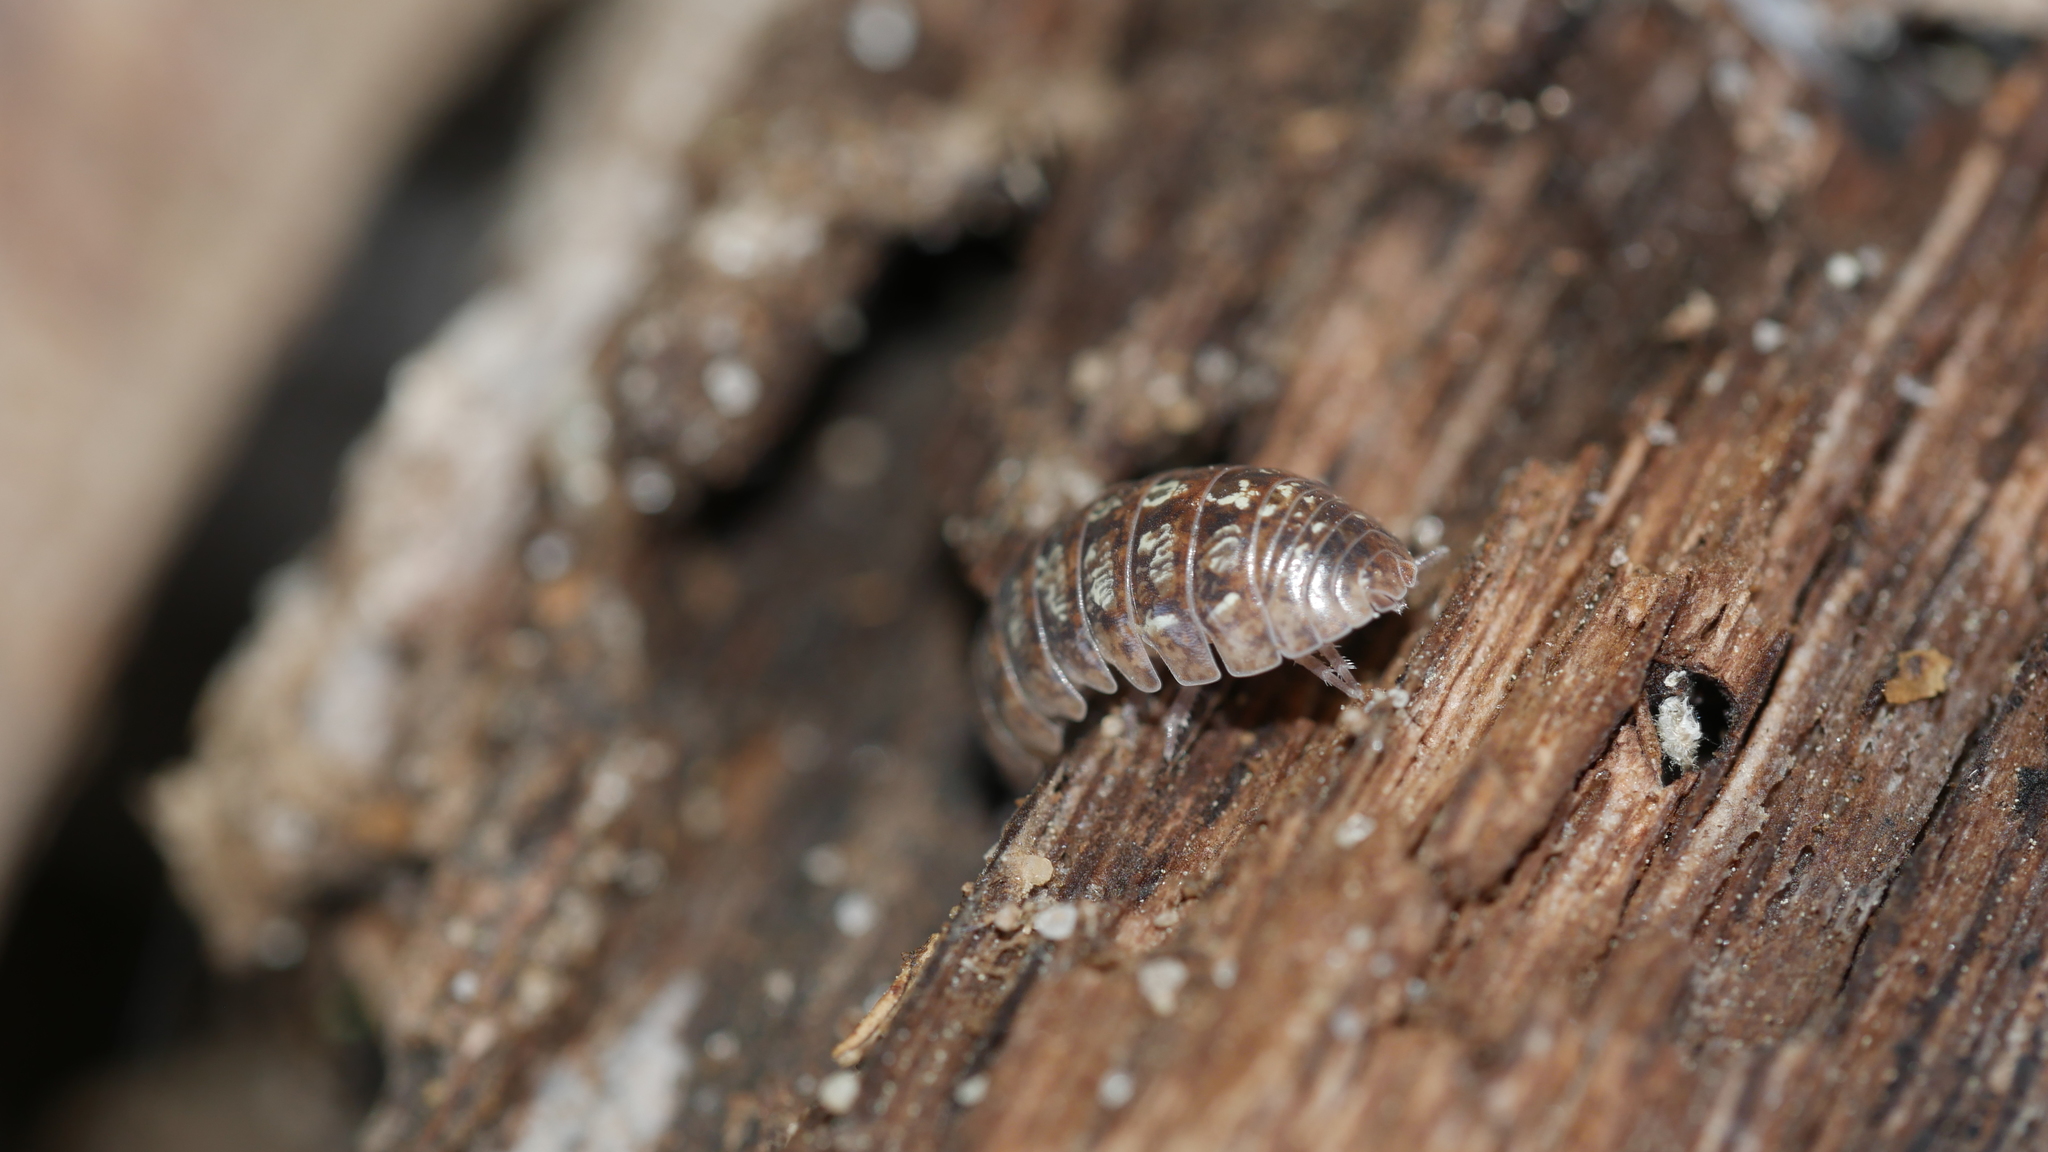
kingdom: Animalia
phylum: Arthropoda
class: Malacostraca
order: Isopoda
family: Armadillidiidae
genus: Armadillidium
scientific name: Armadillidium vulgare
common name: Common pill woodlouse
